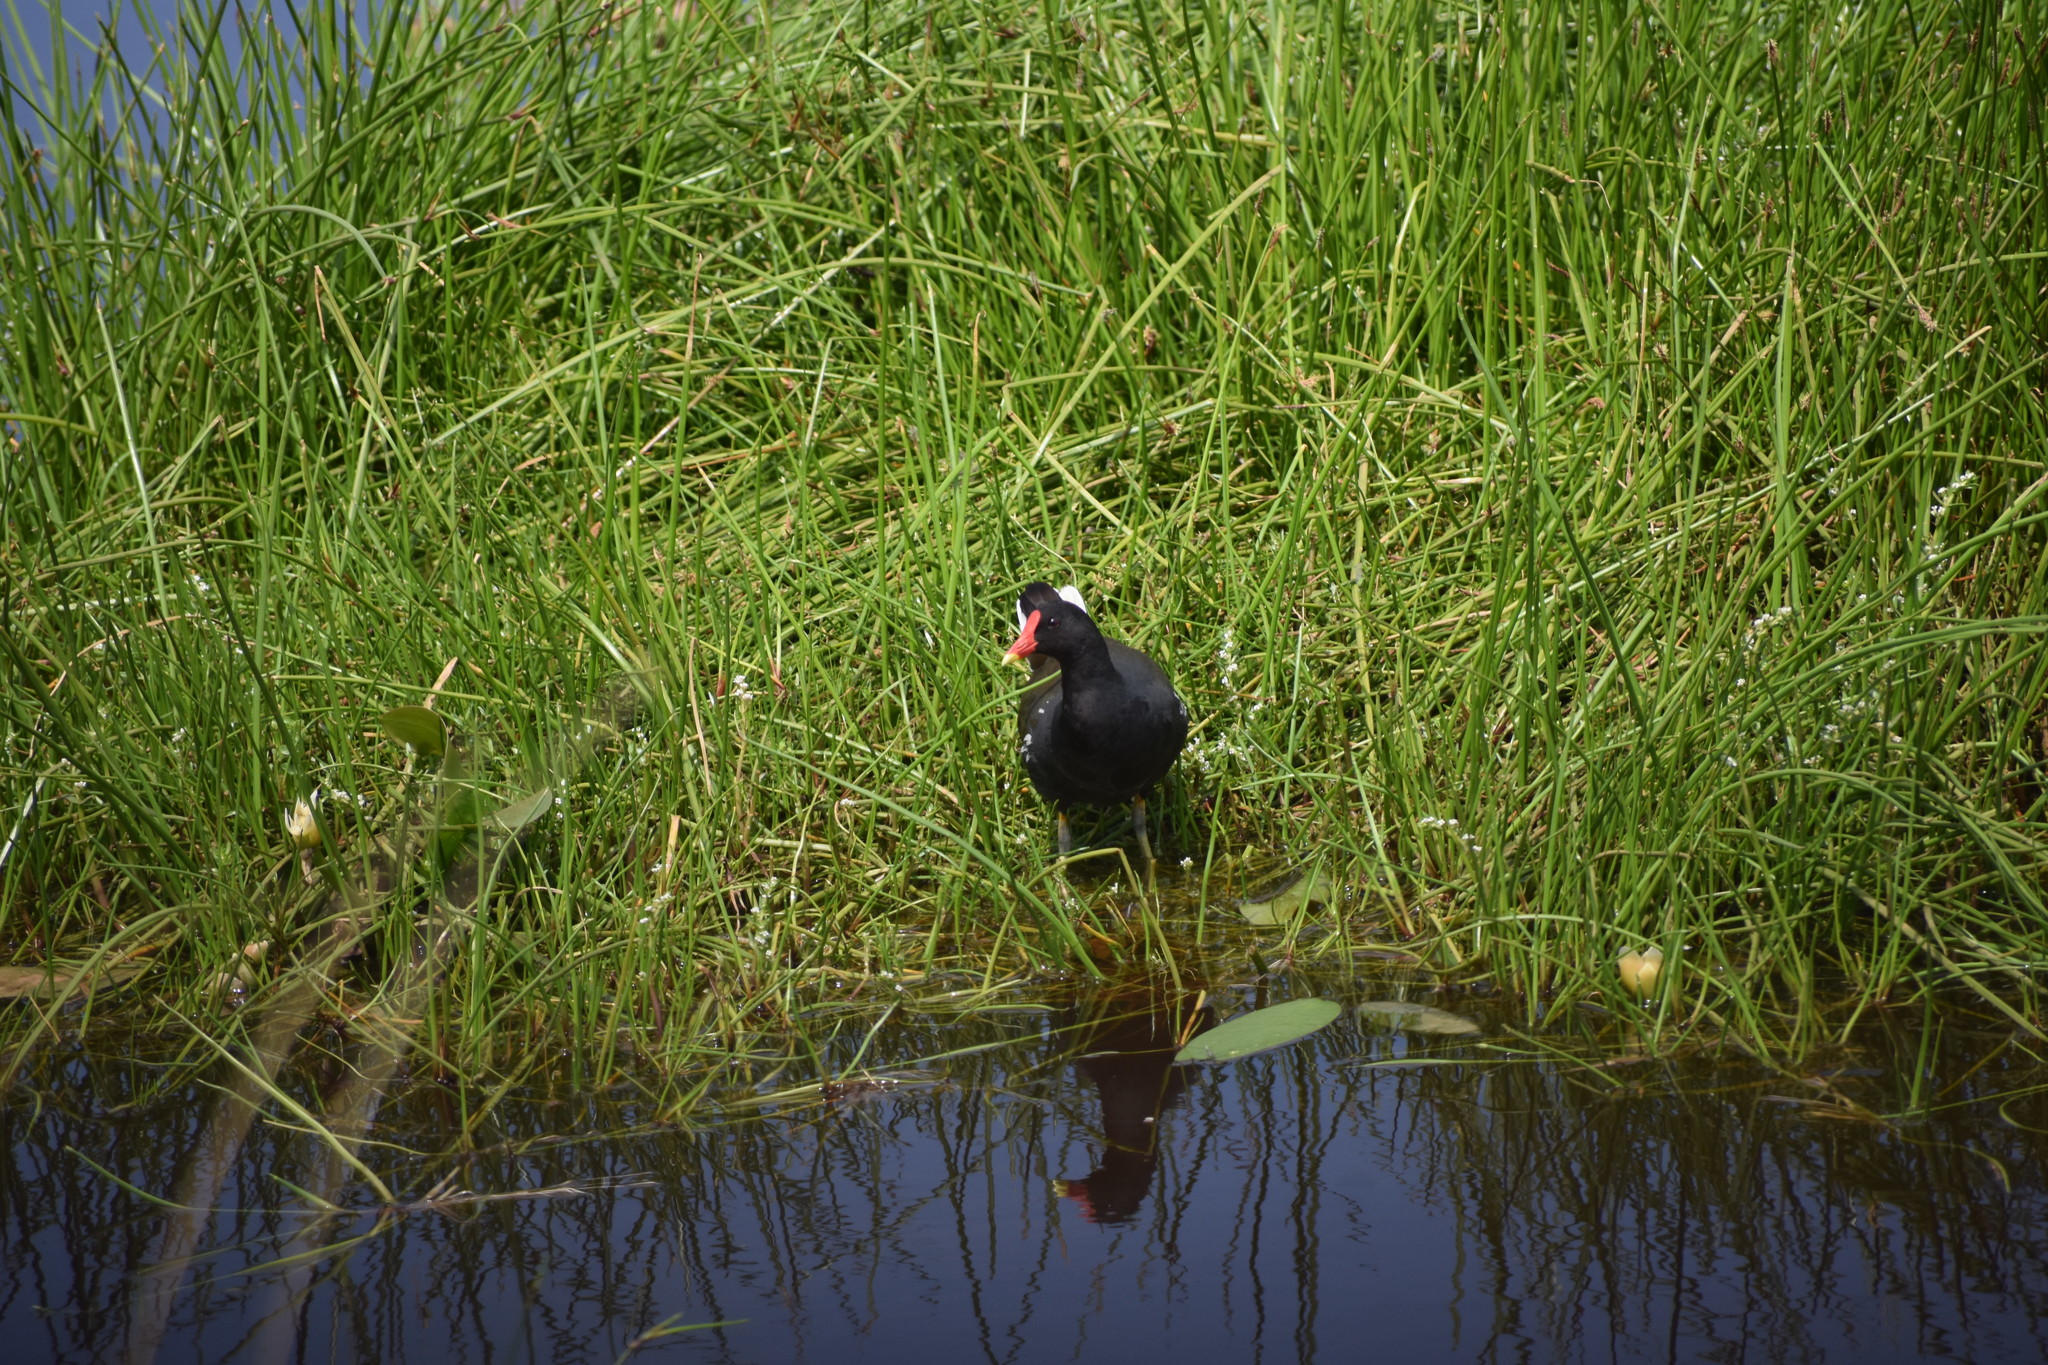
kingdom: Animalia
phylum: Chordata
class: Aves
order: Gruiformes
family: Rallidae
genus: Gallinula
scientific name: Gallinula chloropus
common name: Common moorhen
